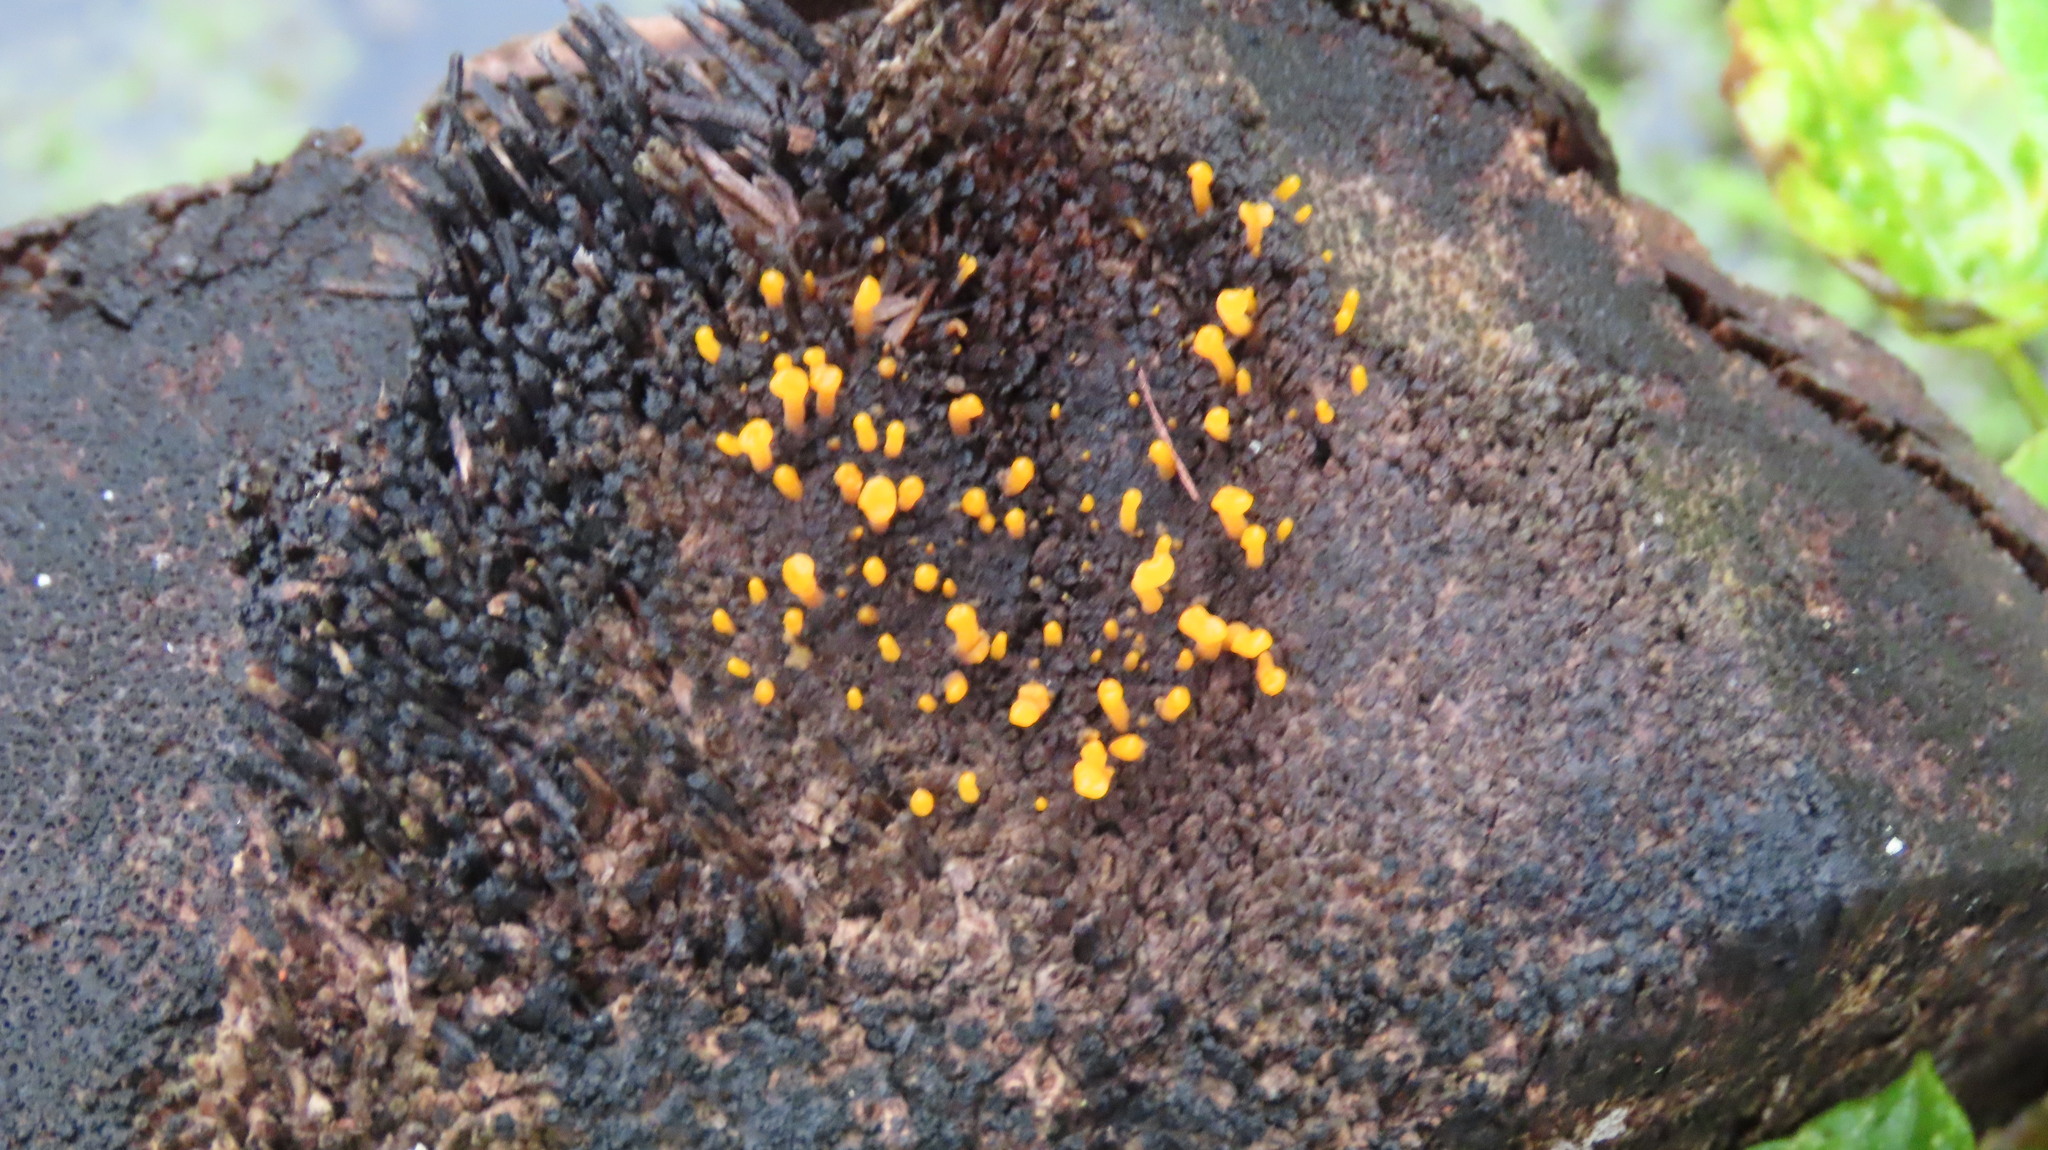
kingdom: Fungi
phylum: Basidiomycota
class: Dacrymycetes
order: Dacrymycetales
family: Dacrymycetaceae
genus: Dacrymyces
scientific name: Dacrymyces spathularius
